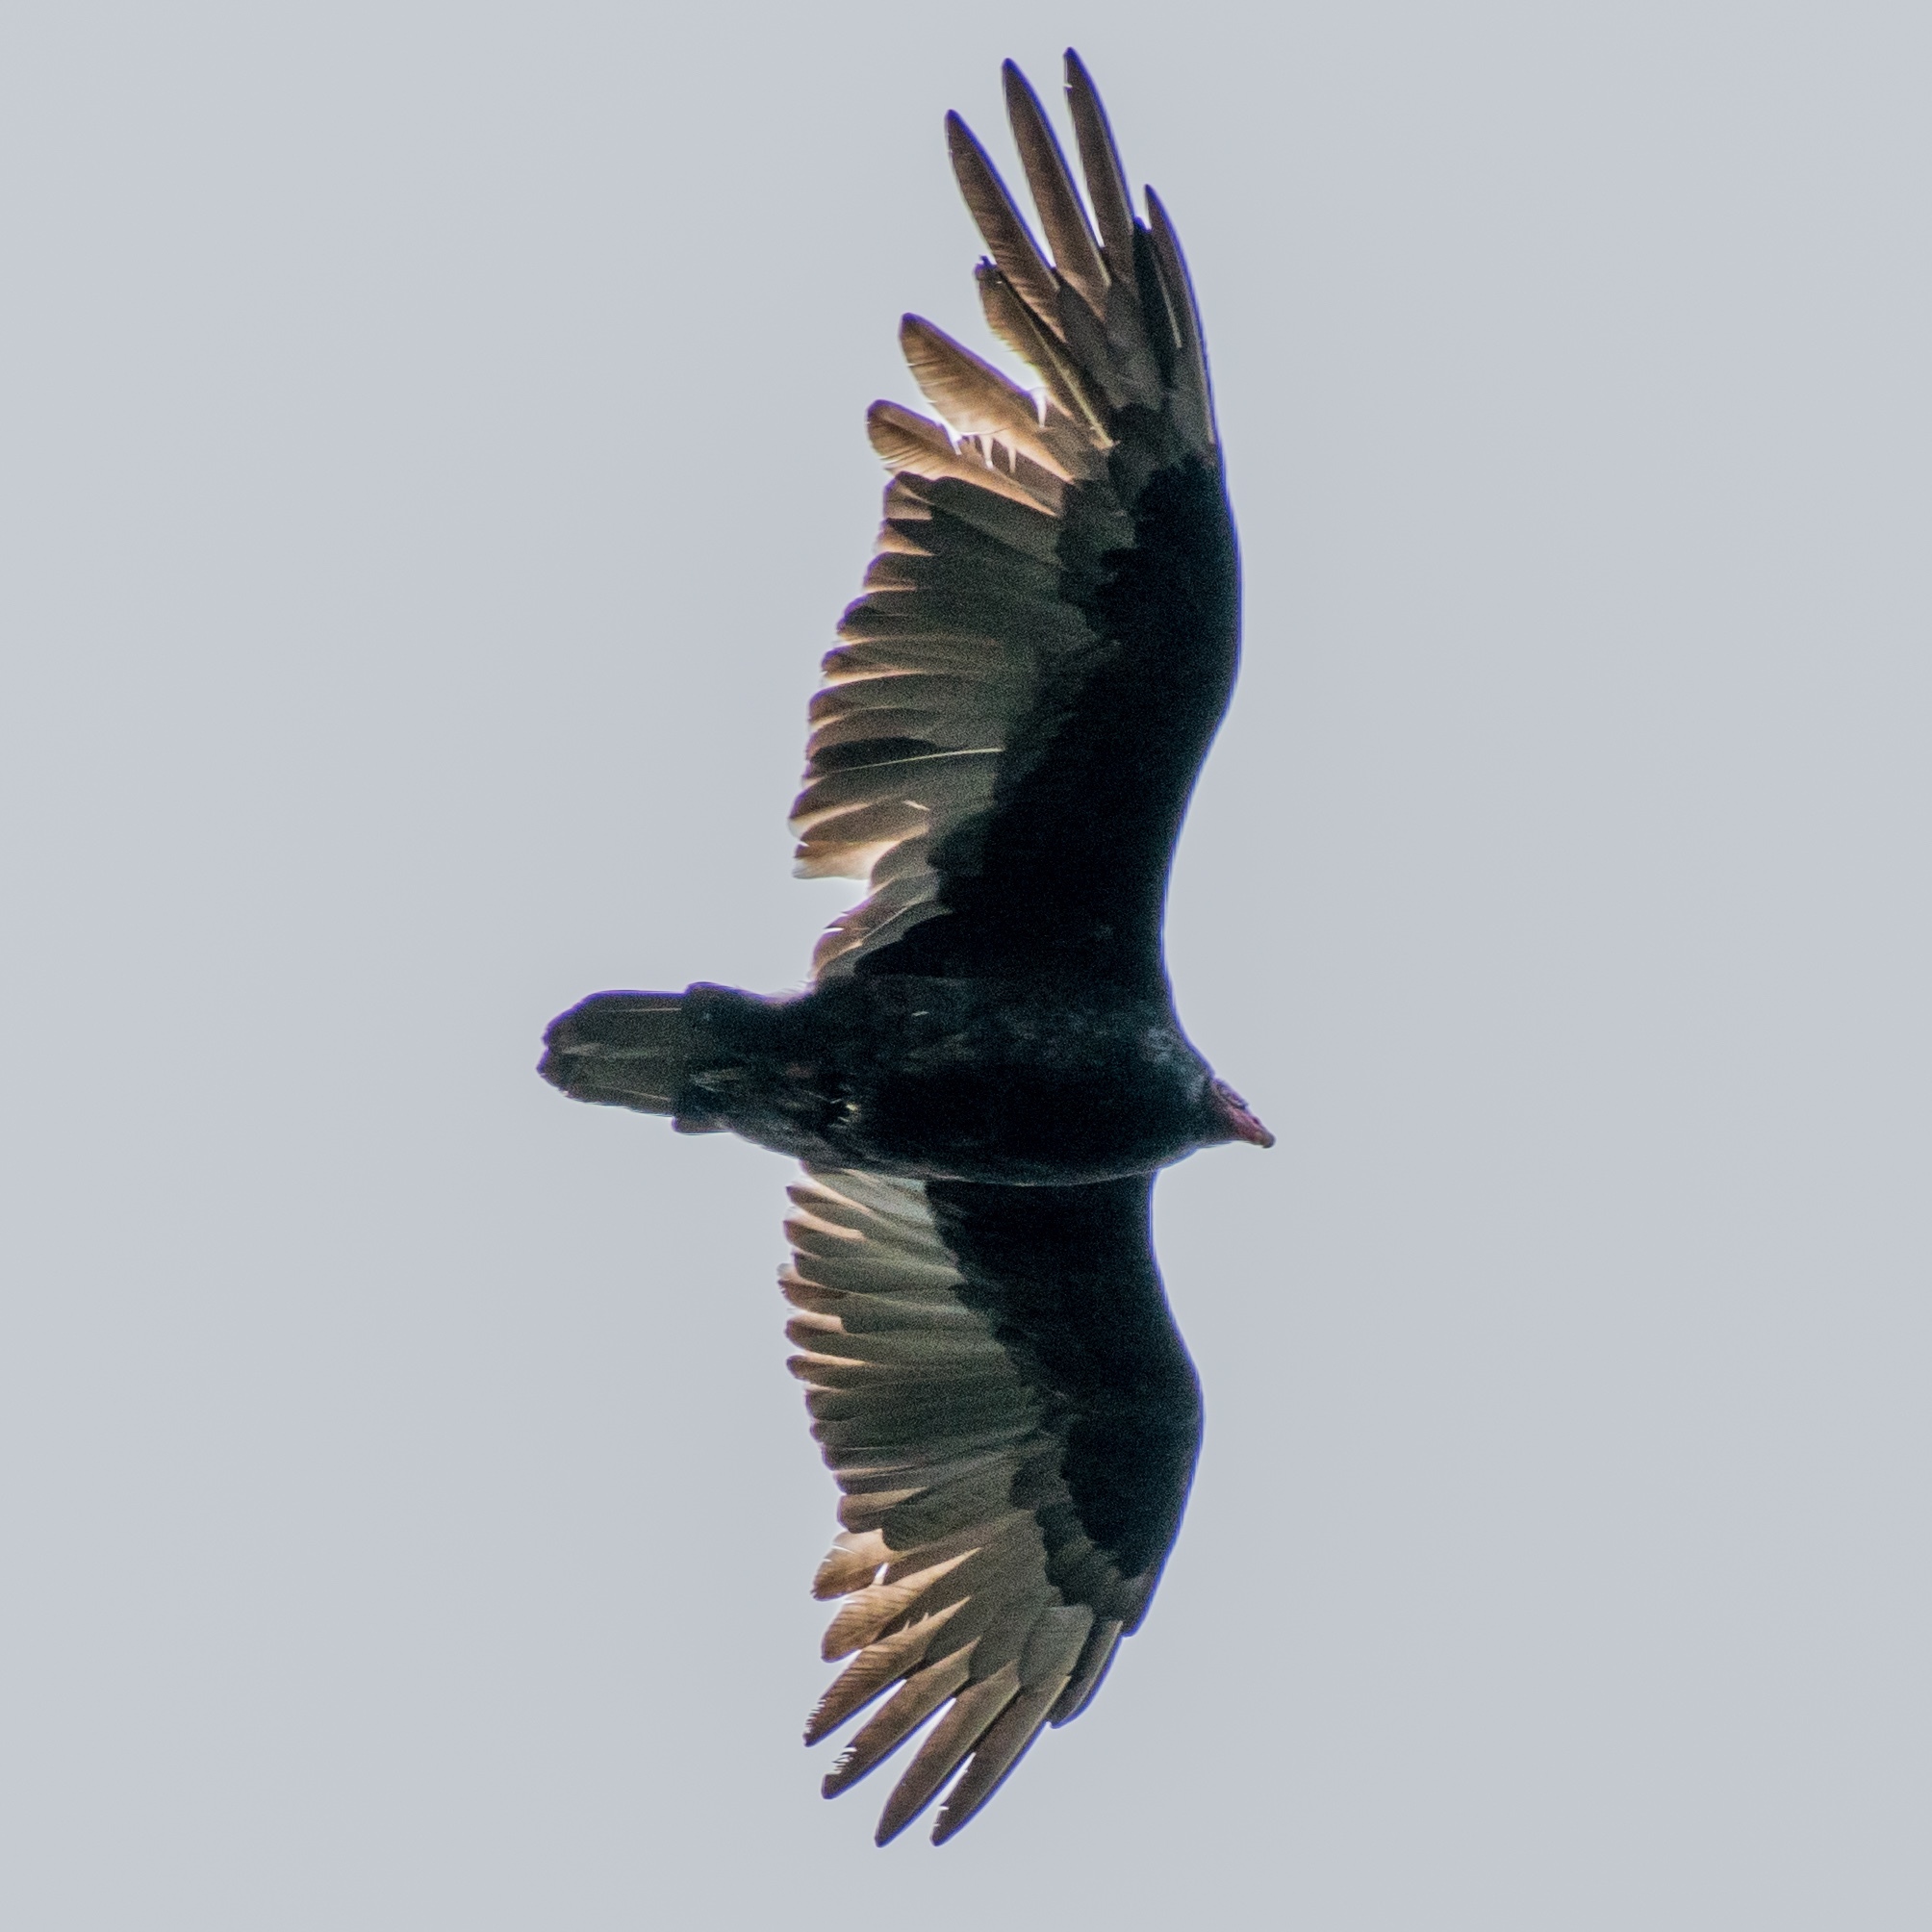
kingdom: Animalia
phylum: Chordata
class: Aves
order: Accipitriformes
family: Cathartidae
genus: Cathartes
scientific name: Cathartes aura
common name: Turkey vulture
